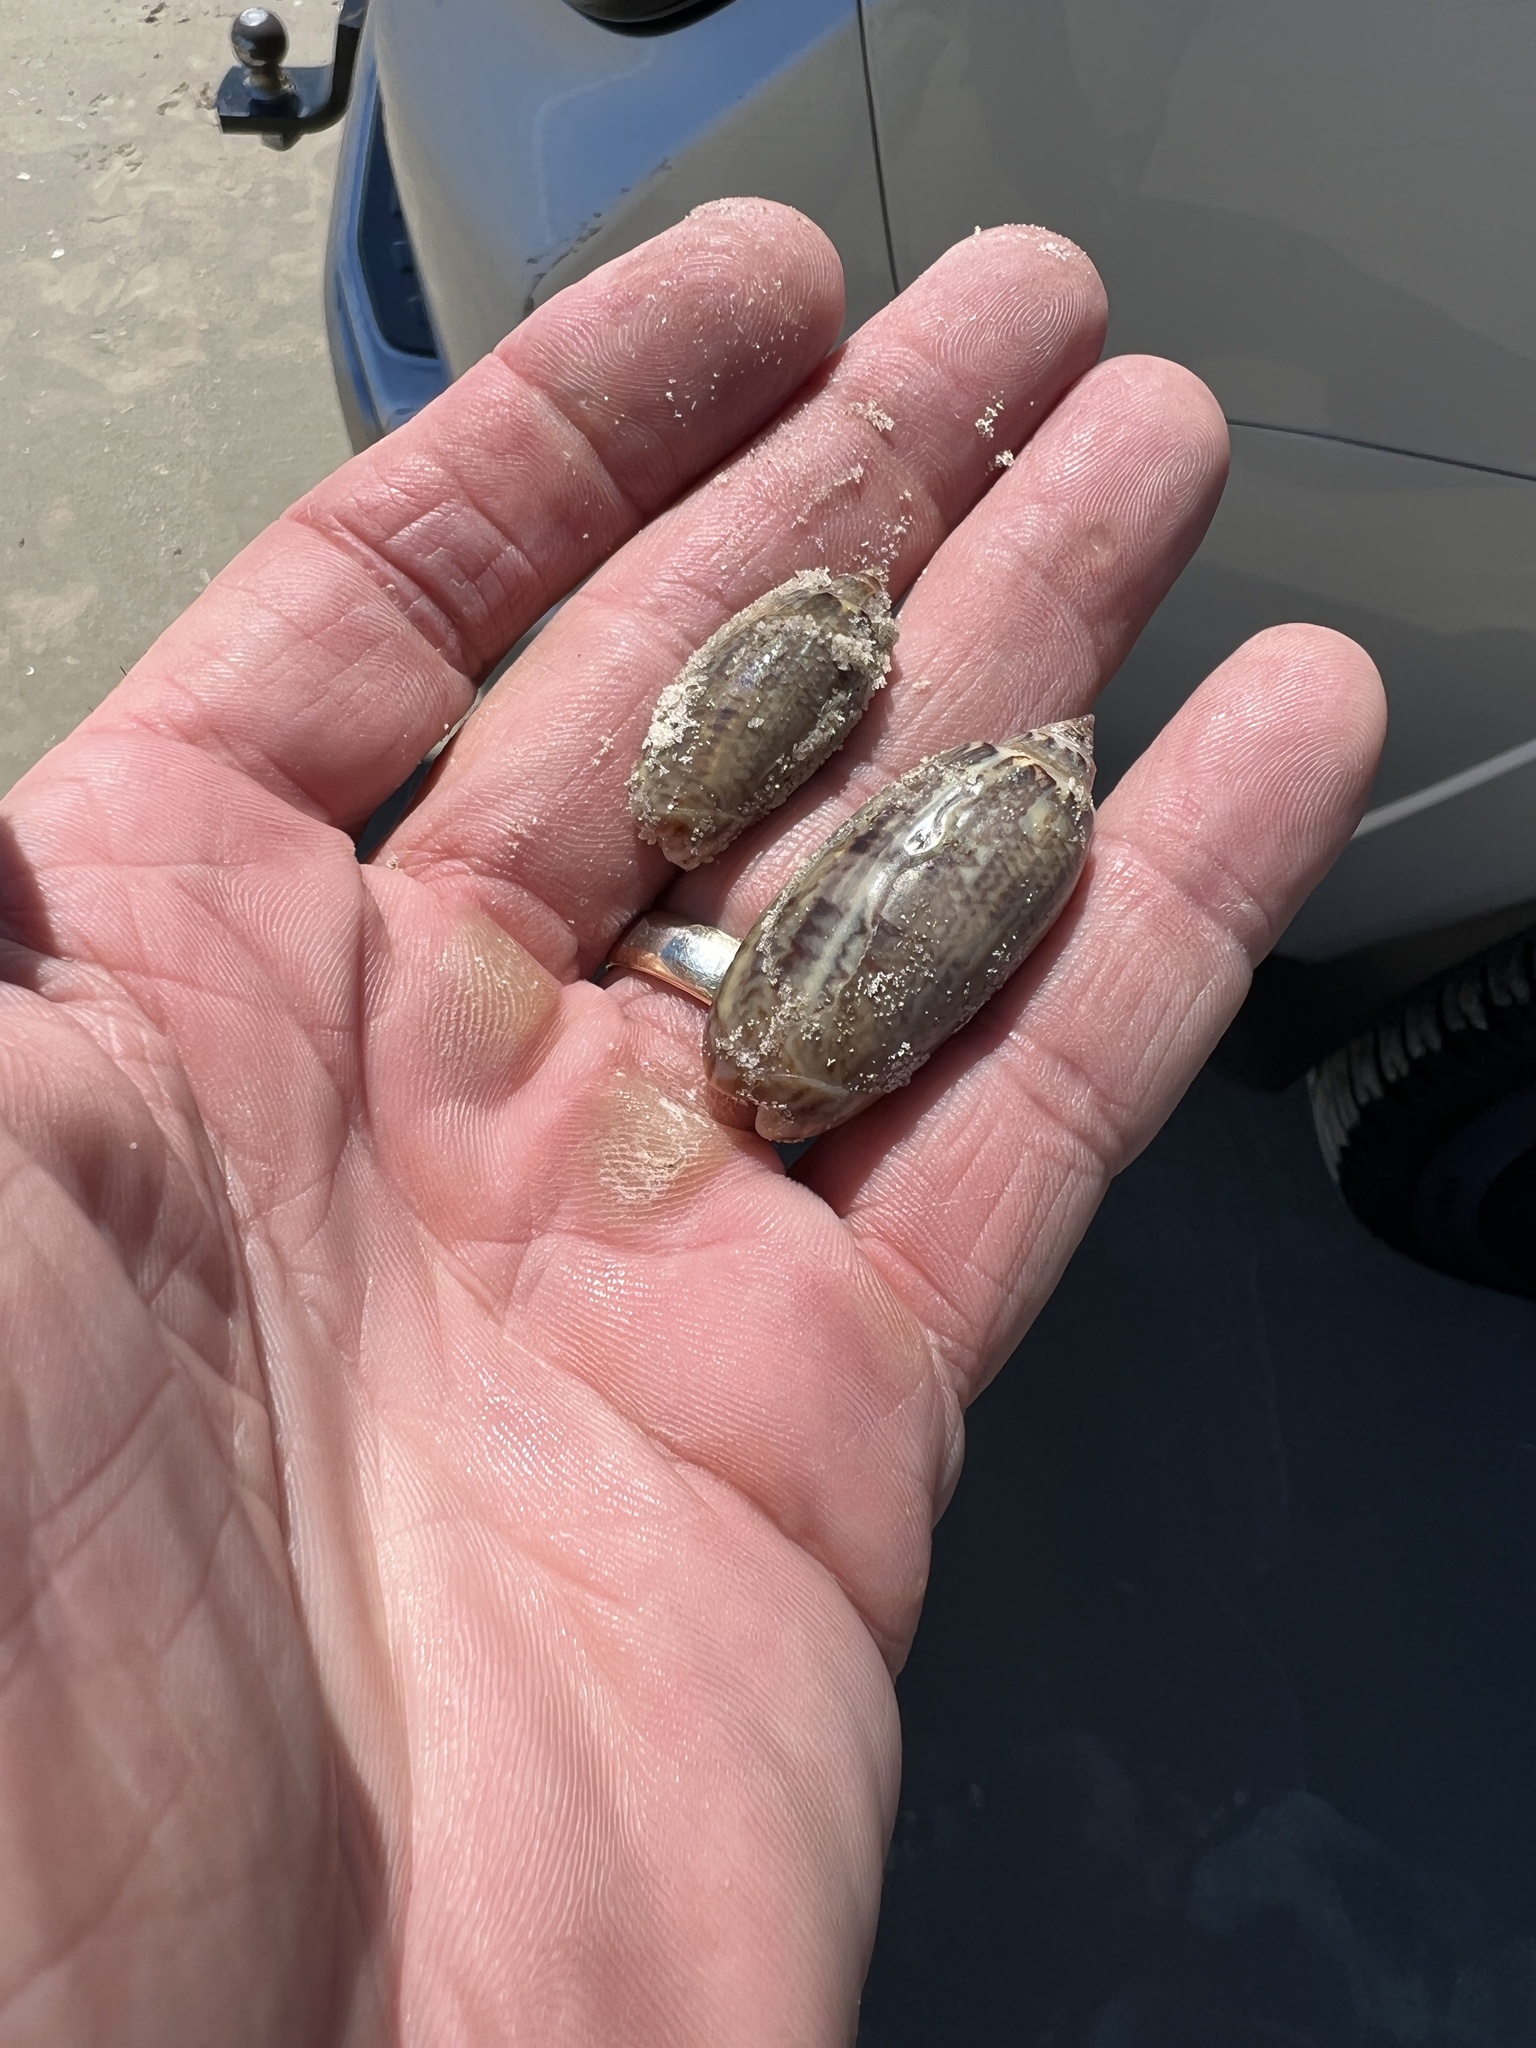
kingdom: Animalia
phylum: Mollusca
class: Gastropoda
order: Neogastropoda
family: Olividae
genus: Oliva
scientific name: Oliva sayana
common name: Lettered olive
